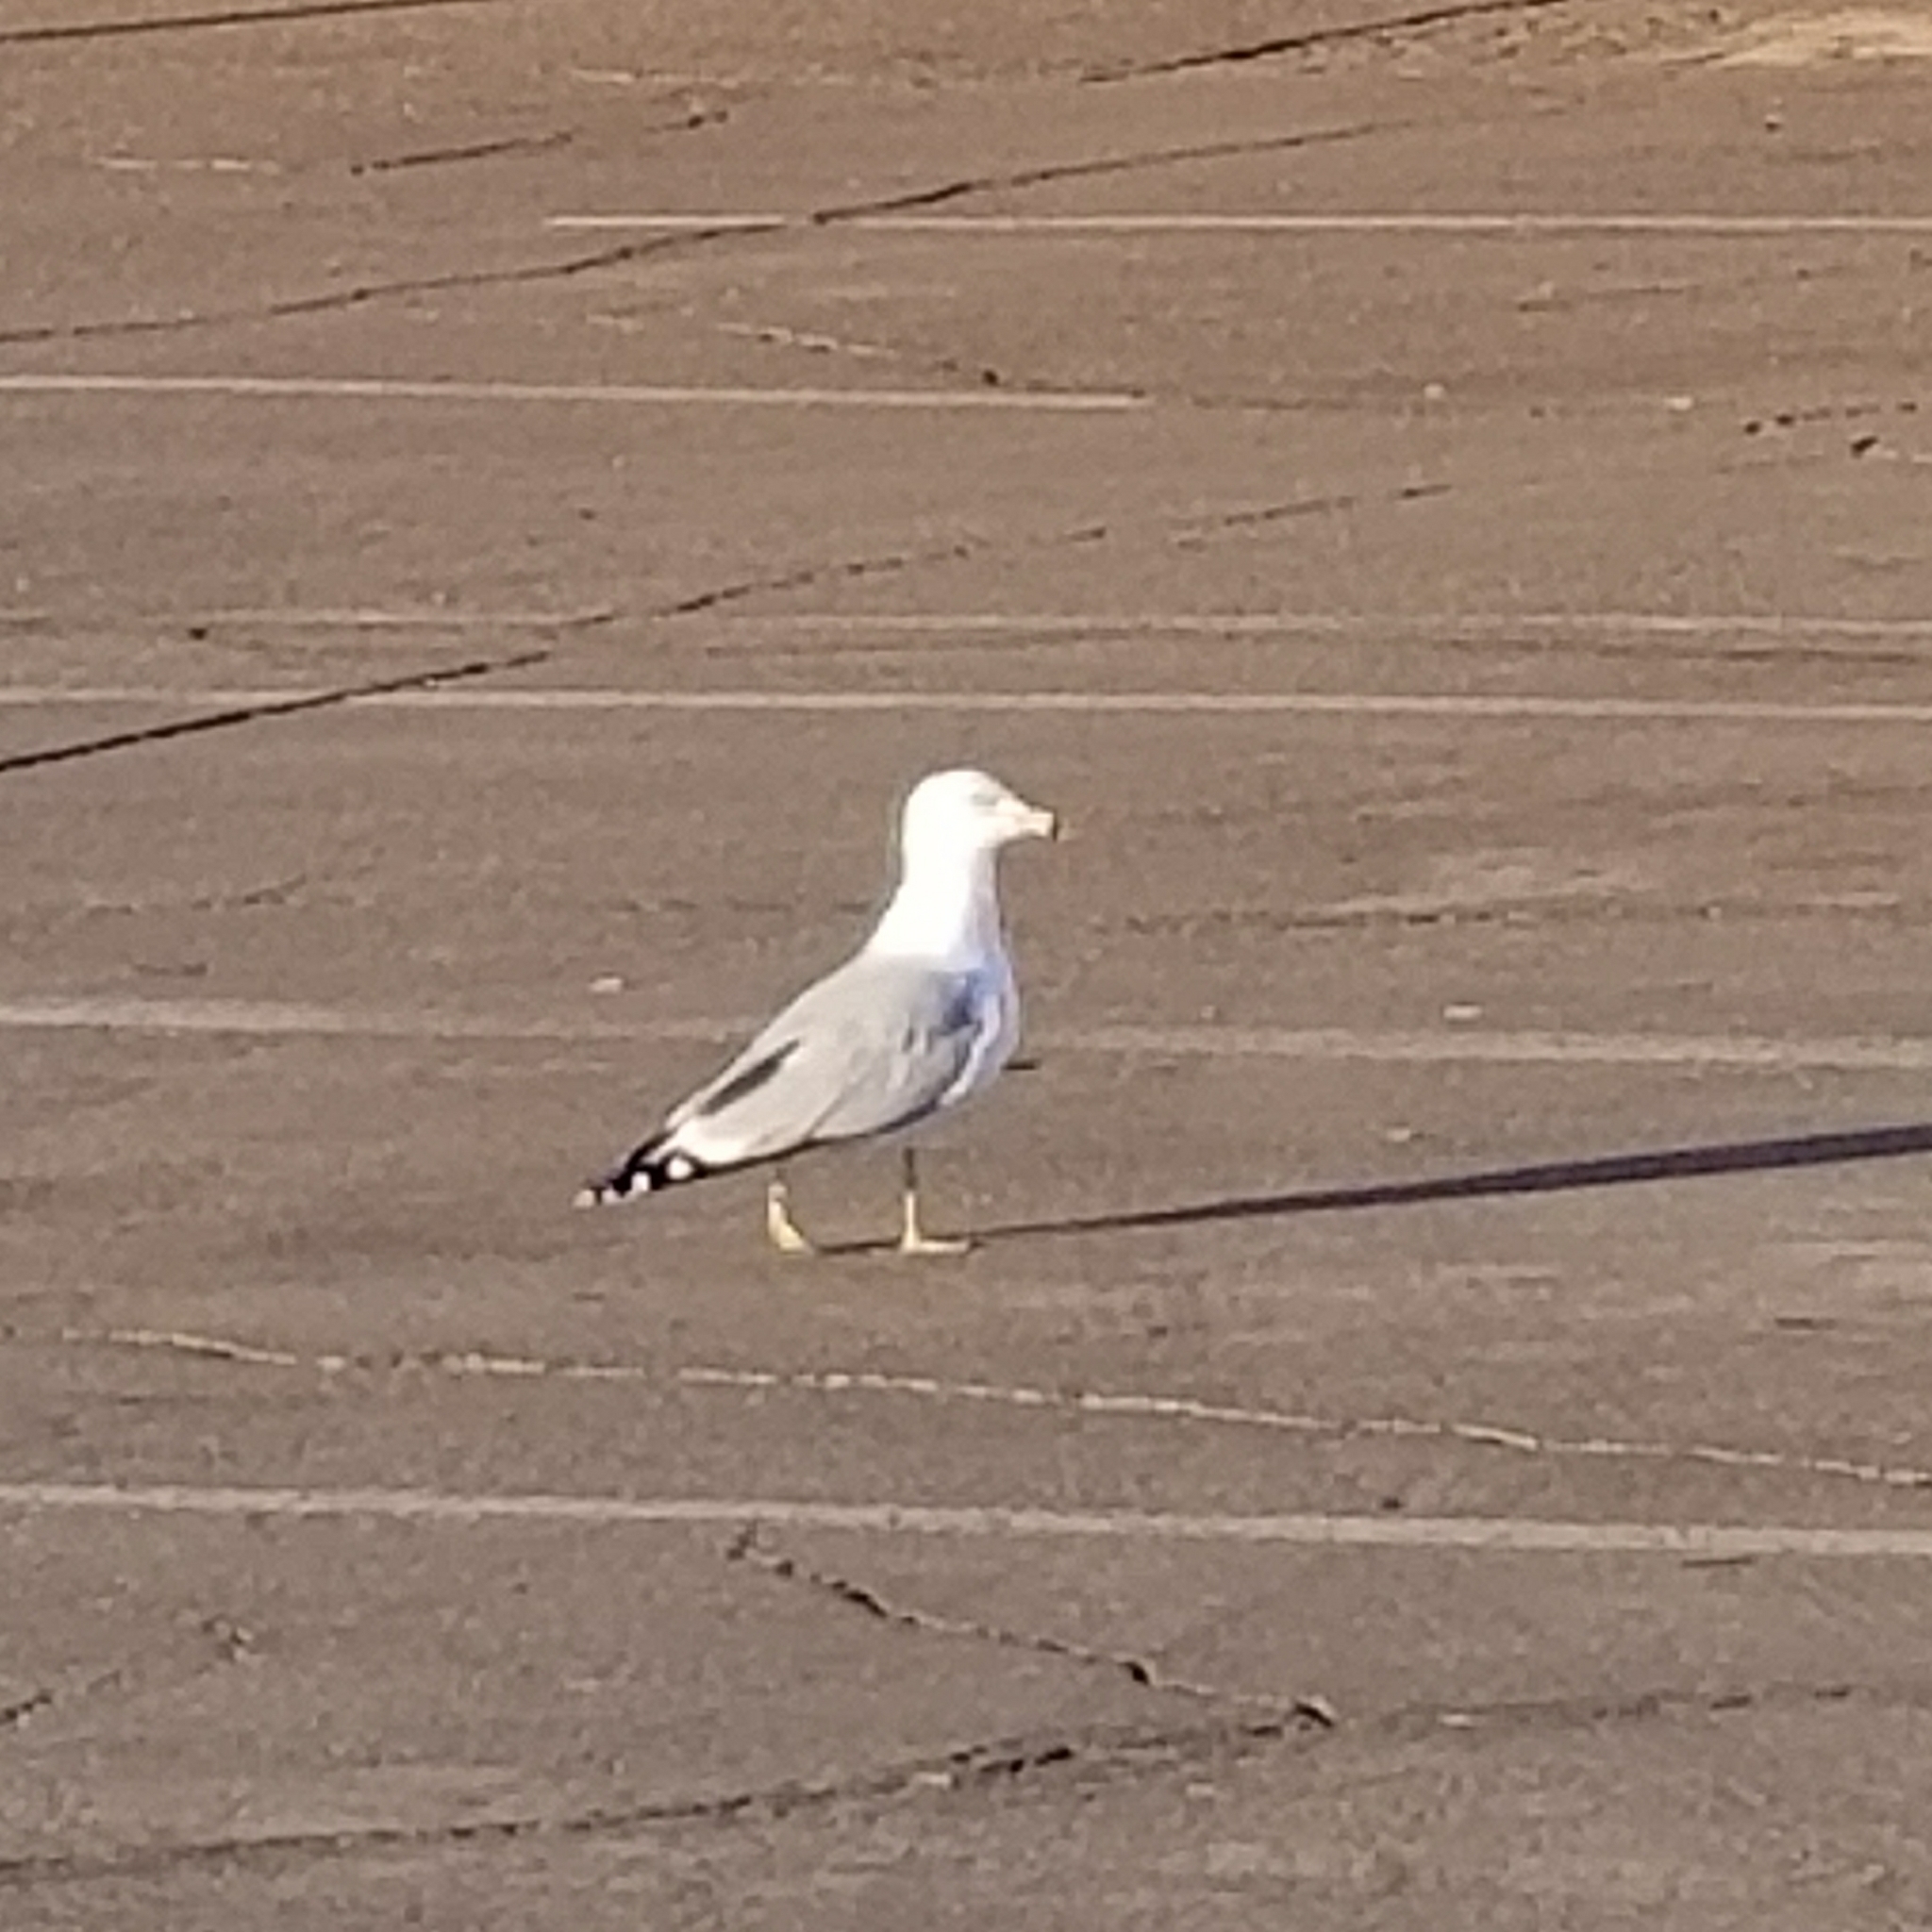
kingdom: Animalia
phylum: Chordata
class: Aves
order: Charadriiformes
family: Laridae
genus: Larus
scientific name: Larus delawarensis
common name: Ring-billed gull
